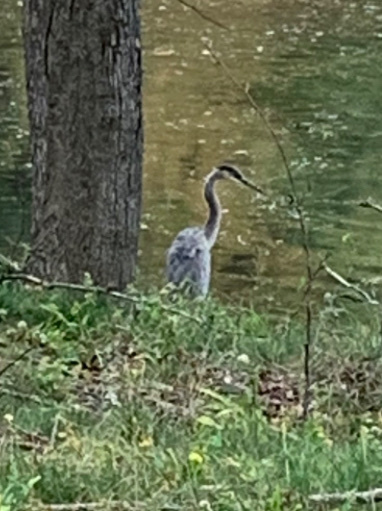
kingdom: Animalia
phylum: Chordata
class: Aves
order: Pelecaniformes
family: Ardeidae
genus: Ardea
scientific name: Ardea herodias
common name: Great blue heron
